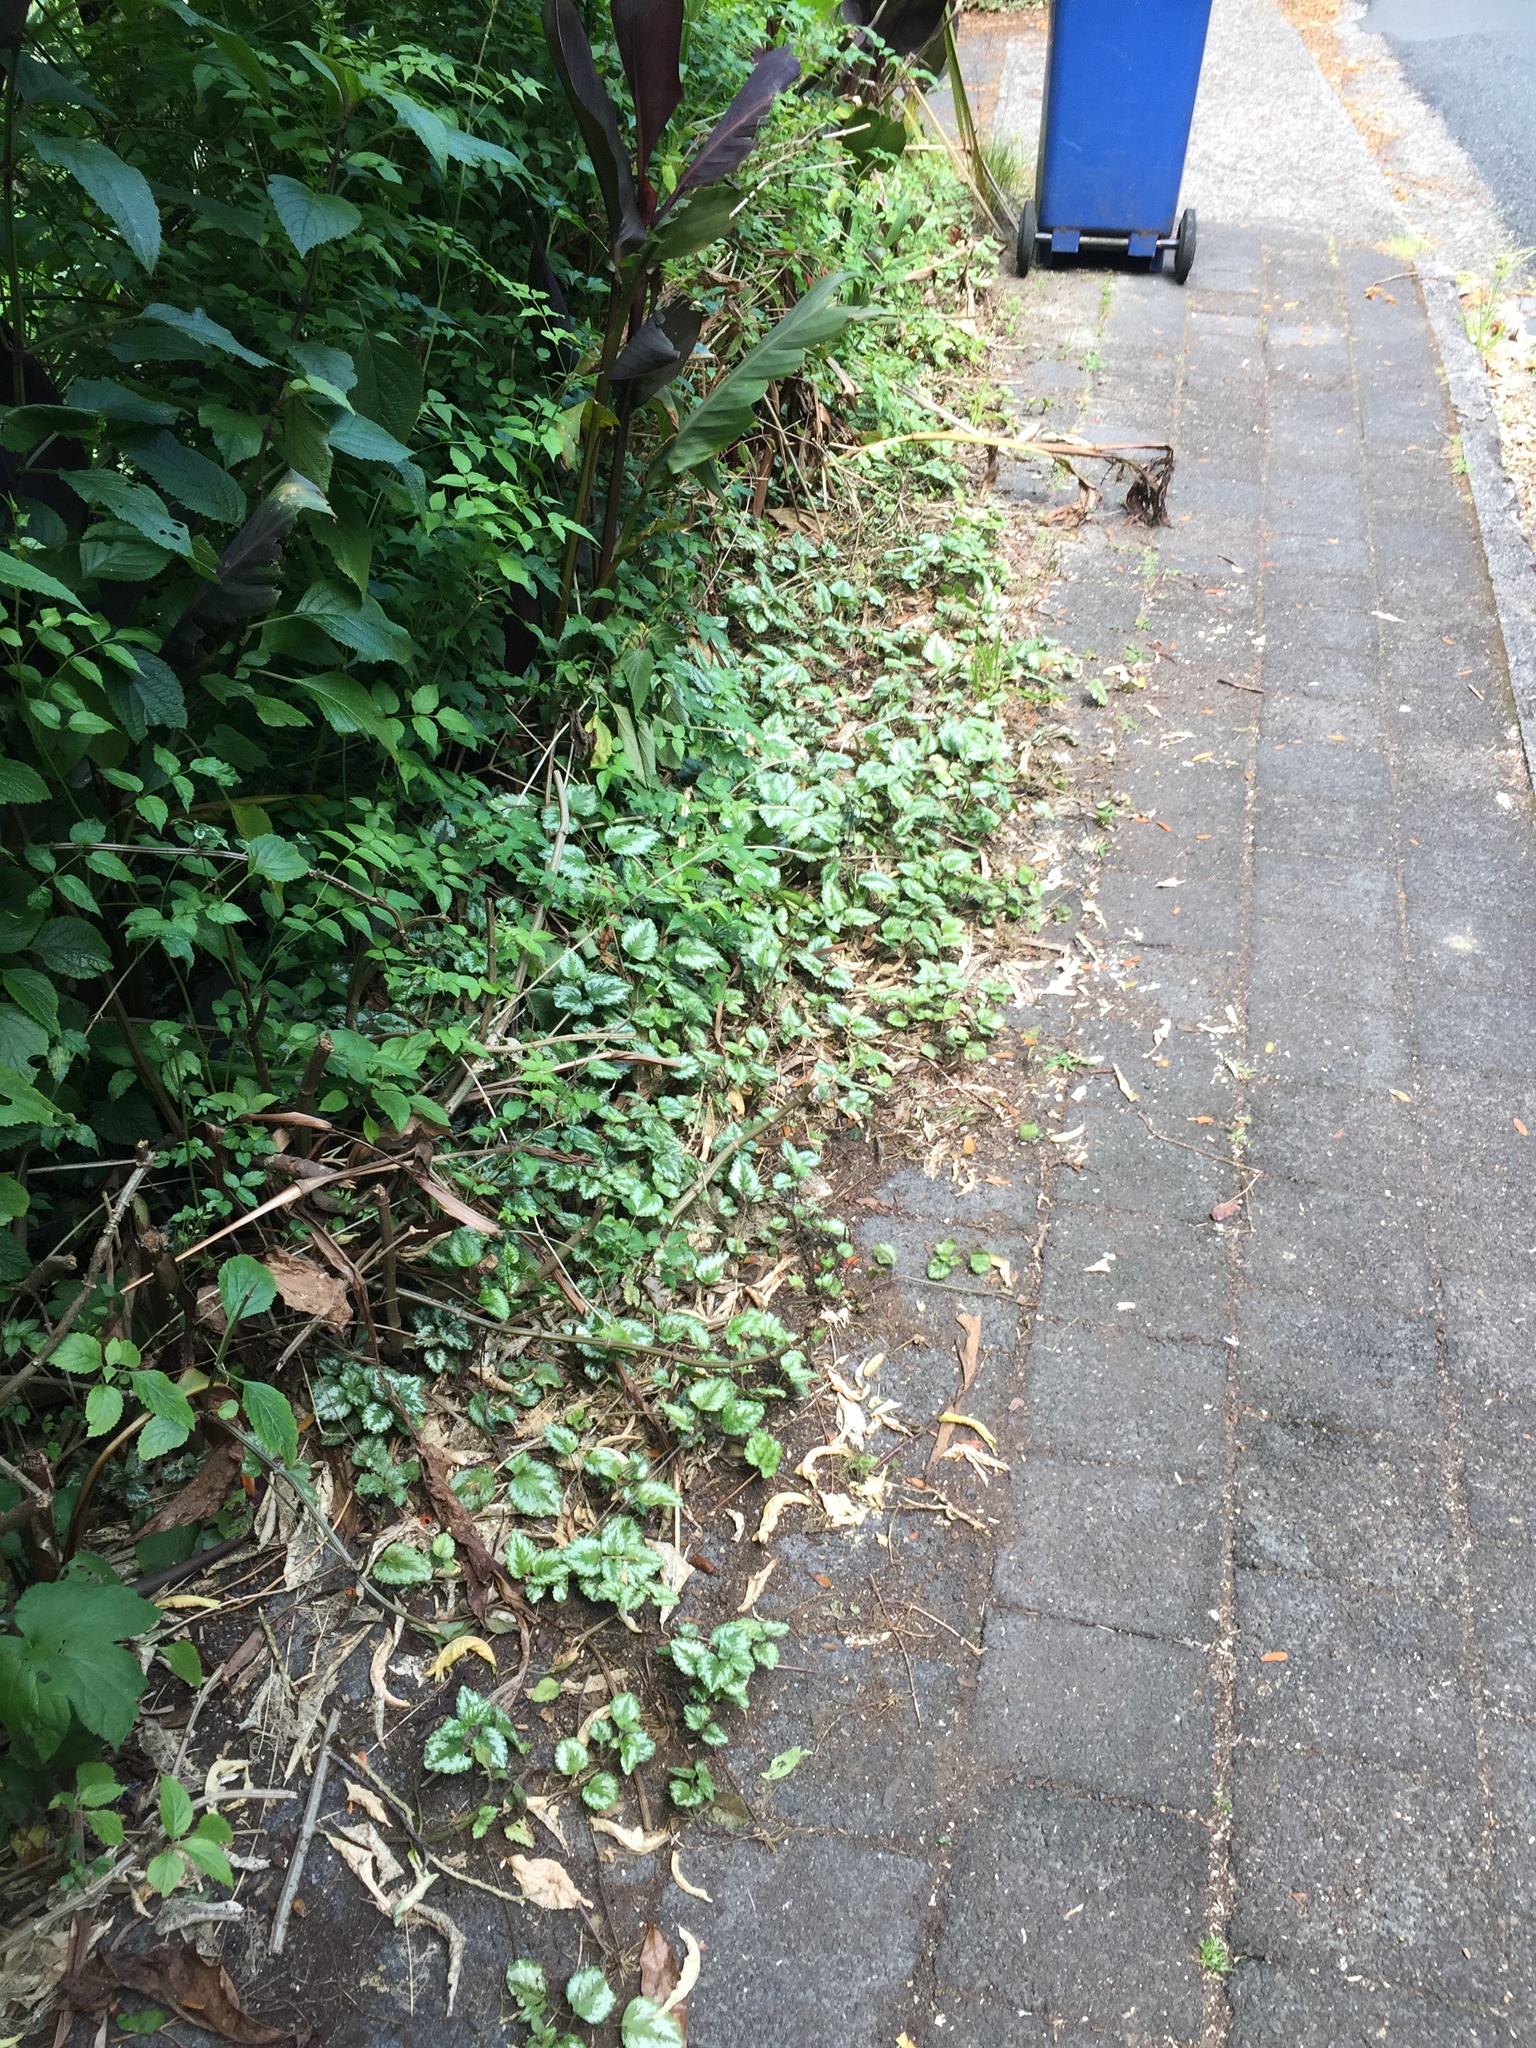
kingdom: Plantae
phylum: Tracheophyta
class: Magnoliopsida
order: Lamiales
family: Lamiaceae
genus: Lamium
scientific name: Lamium galeobdolon
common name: Yellow archangel
